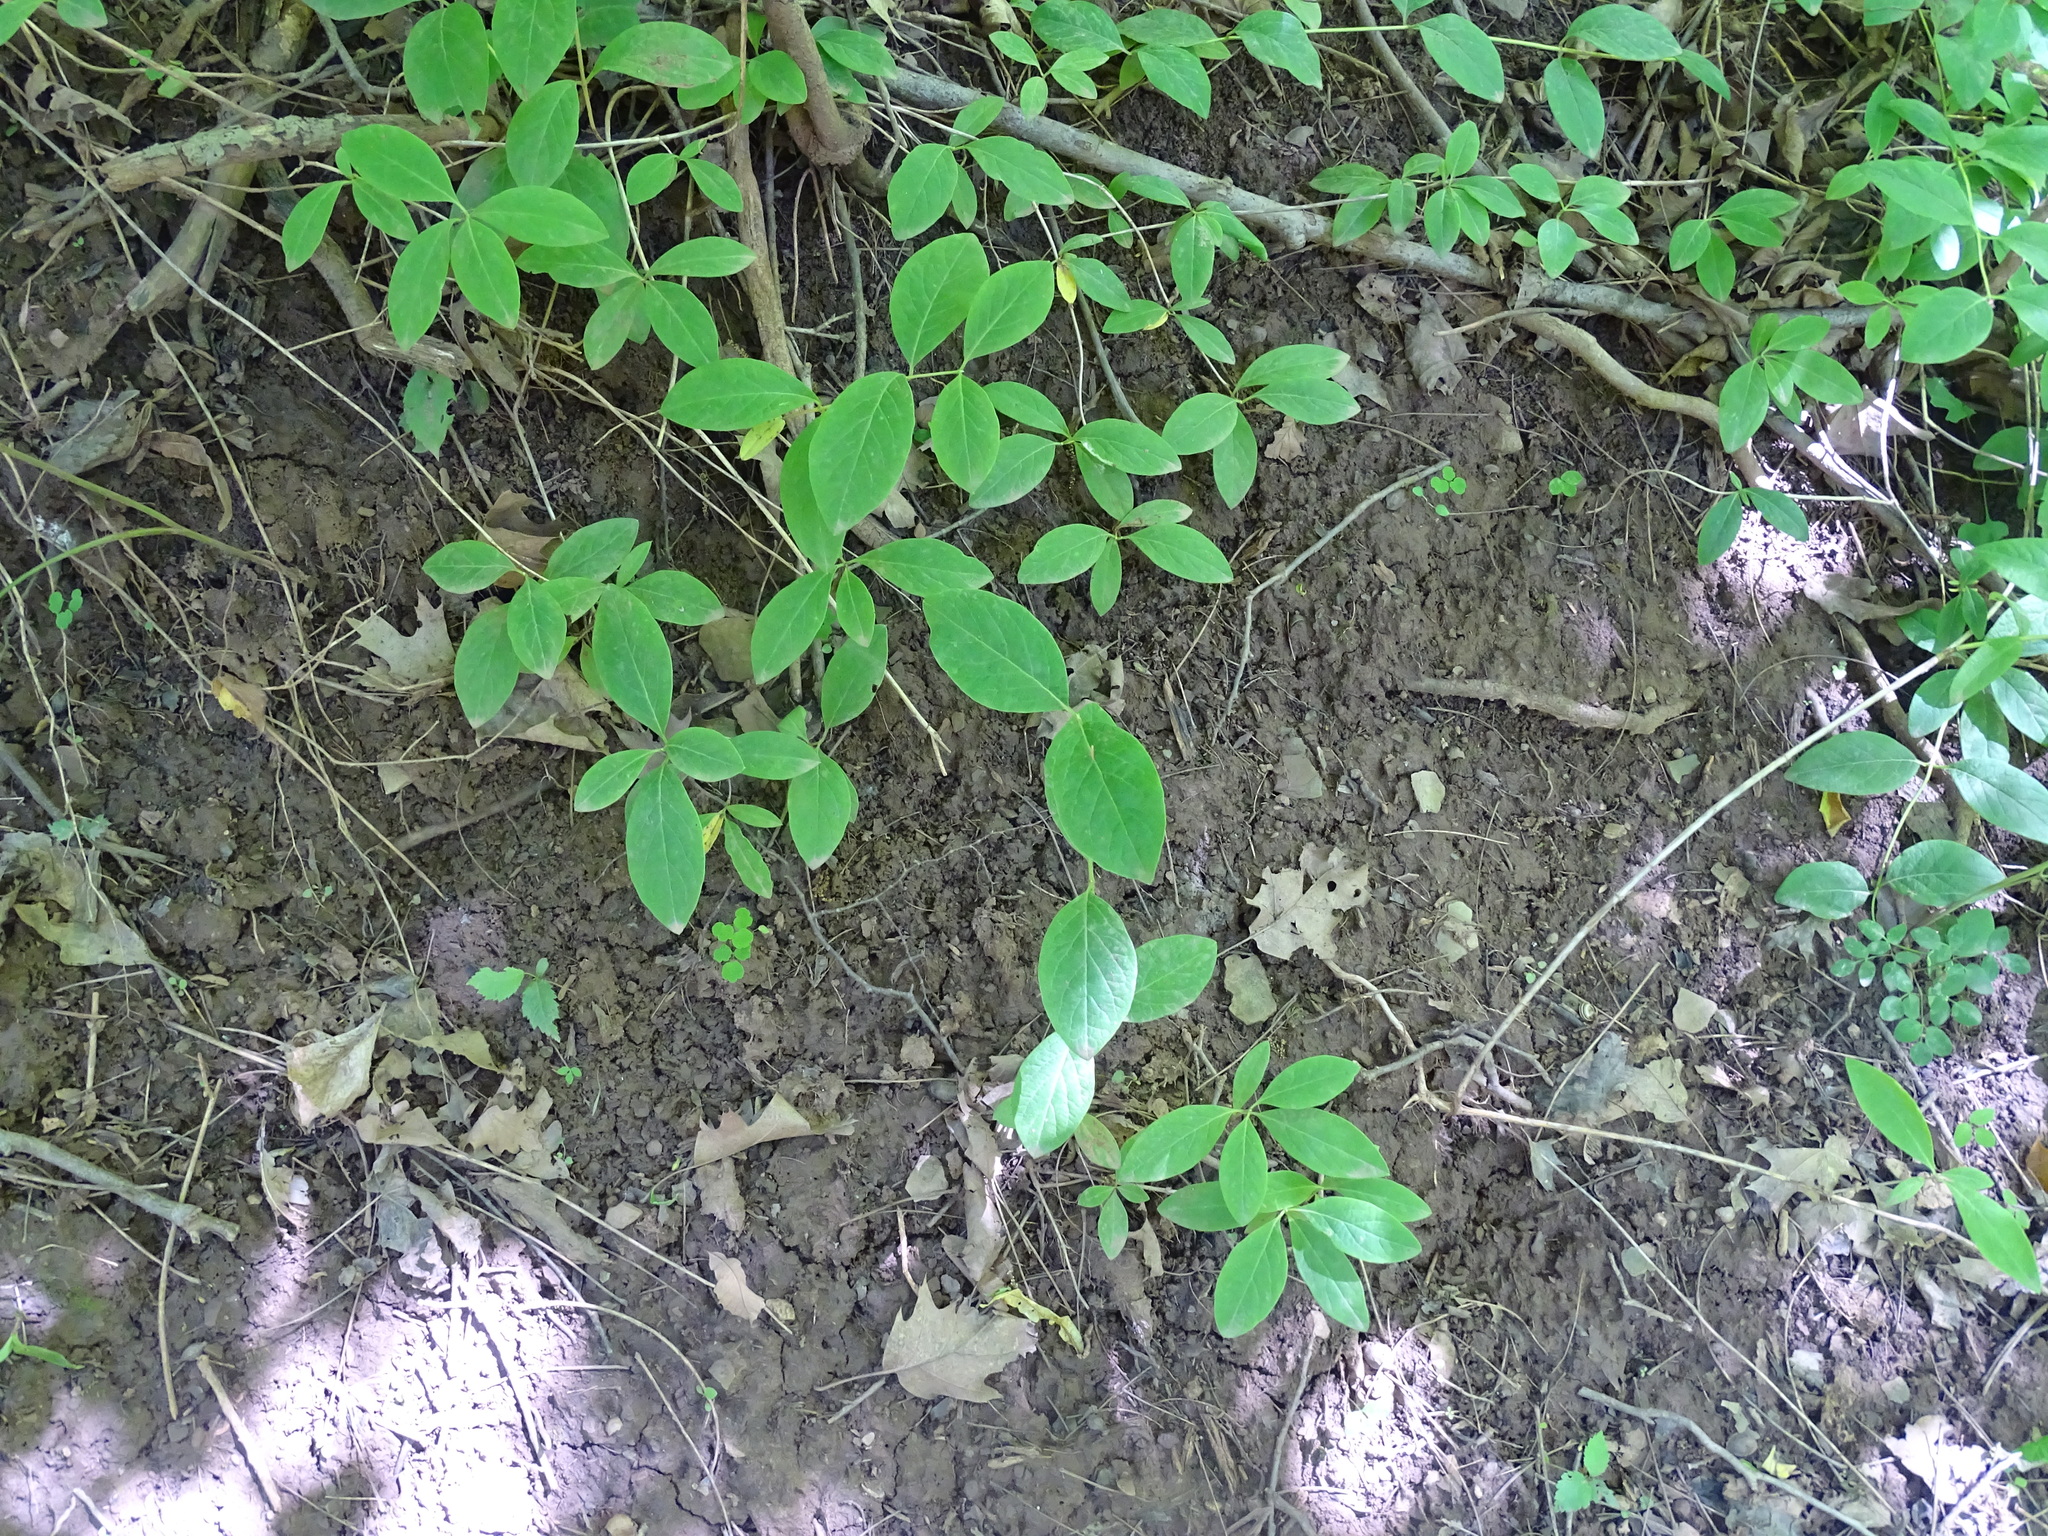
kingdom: Plantae
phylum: Tracheophyta
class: Magnoliopsida
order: Dipsacales
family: Caprifoliaceae
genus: Lonicera
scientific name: Lonicera dioica
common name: Limber honeysuckle
